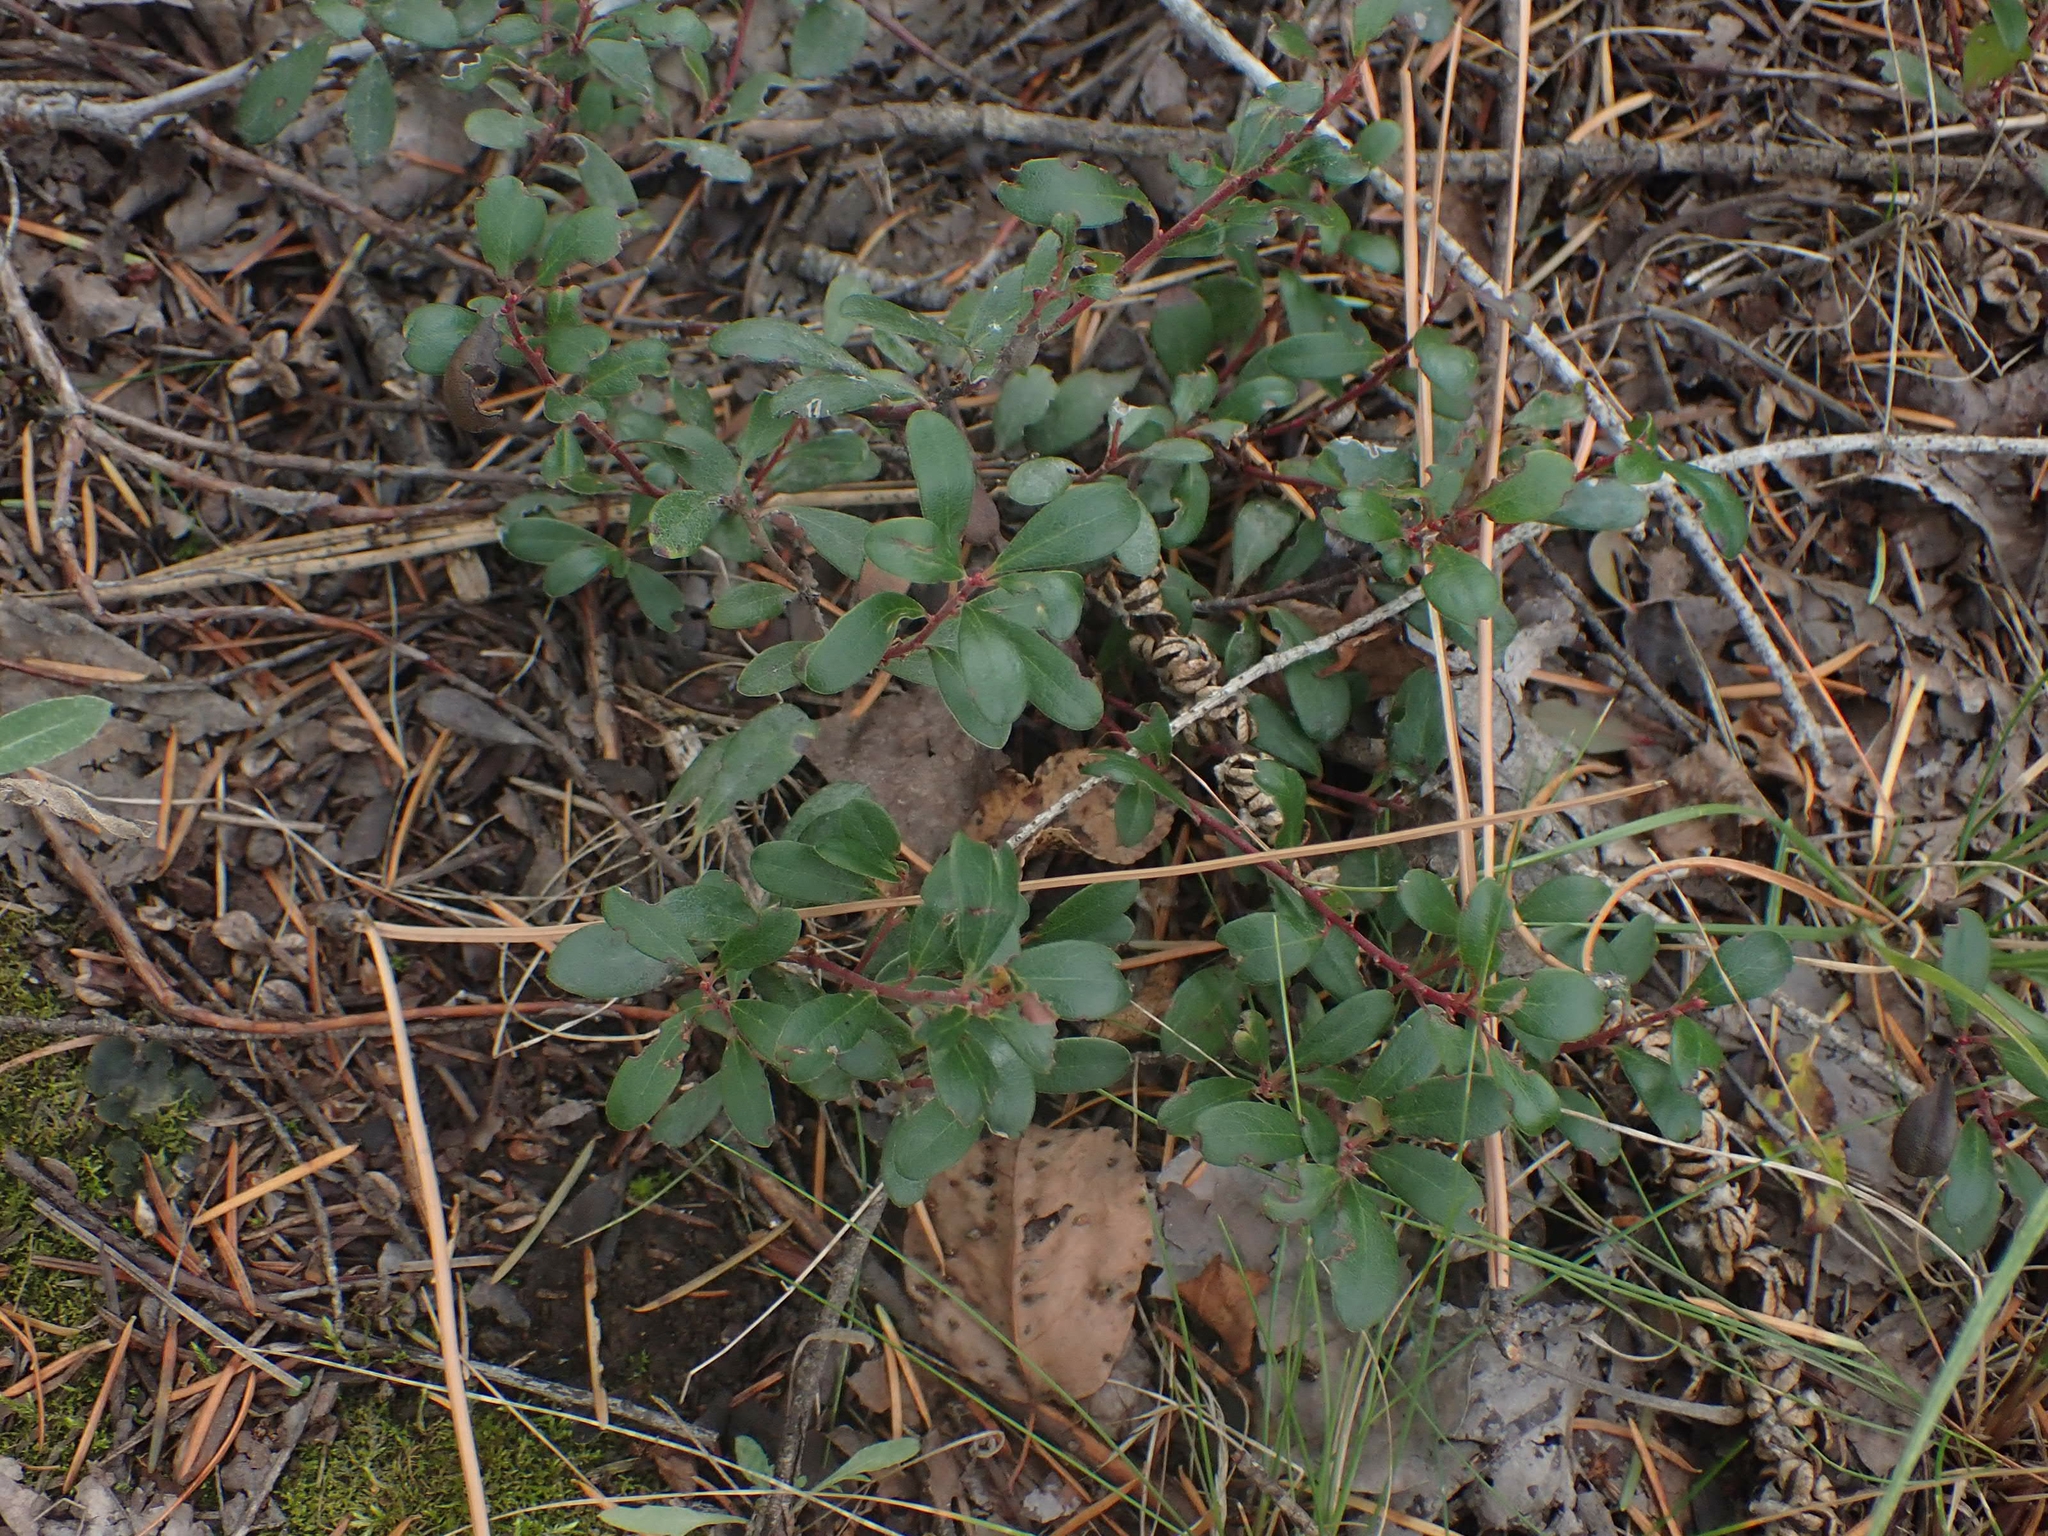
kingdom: Plantae
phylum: Tracheophyta
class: Magnoliopsida
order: Ericales
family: Ericaceae
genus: Arctostaphylos
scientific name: Arctostaphylos uva-ursi
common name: Bearberry
